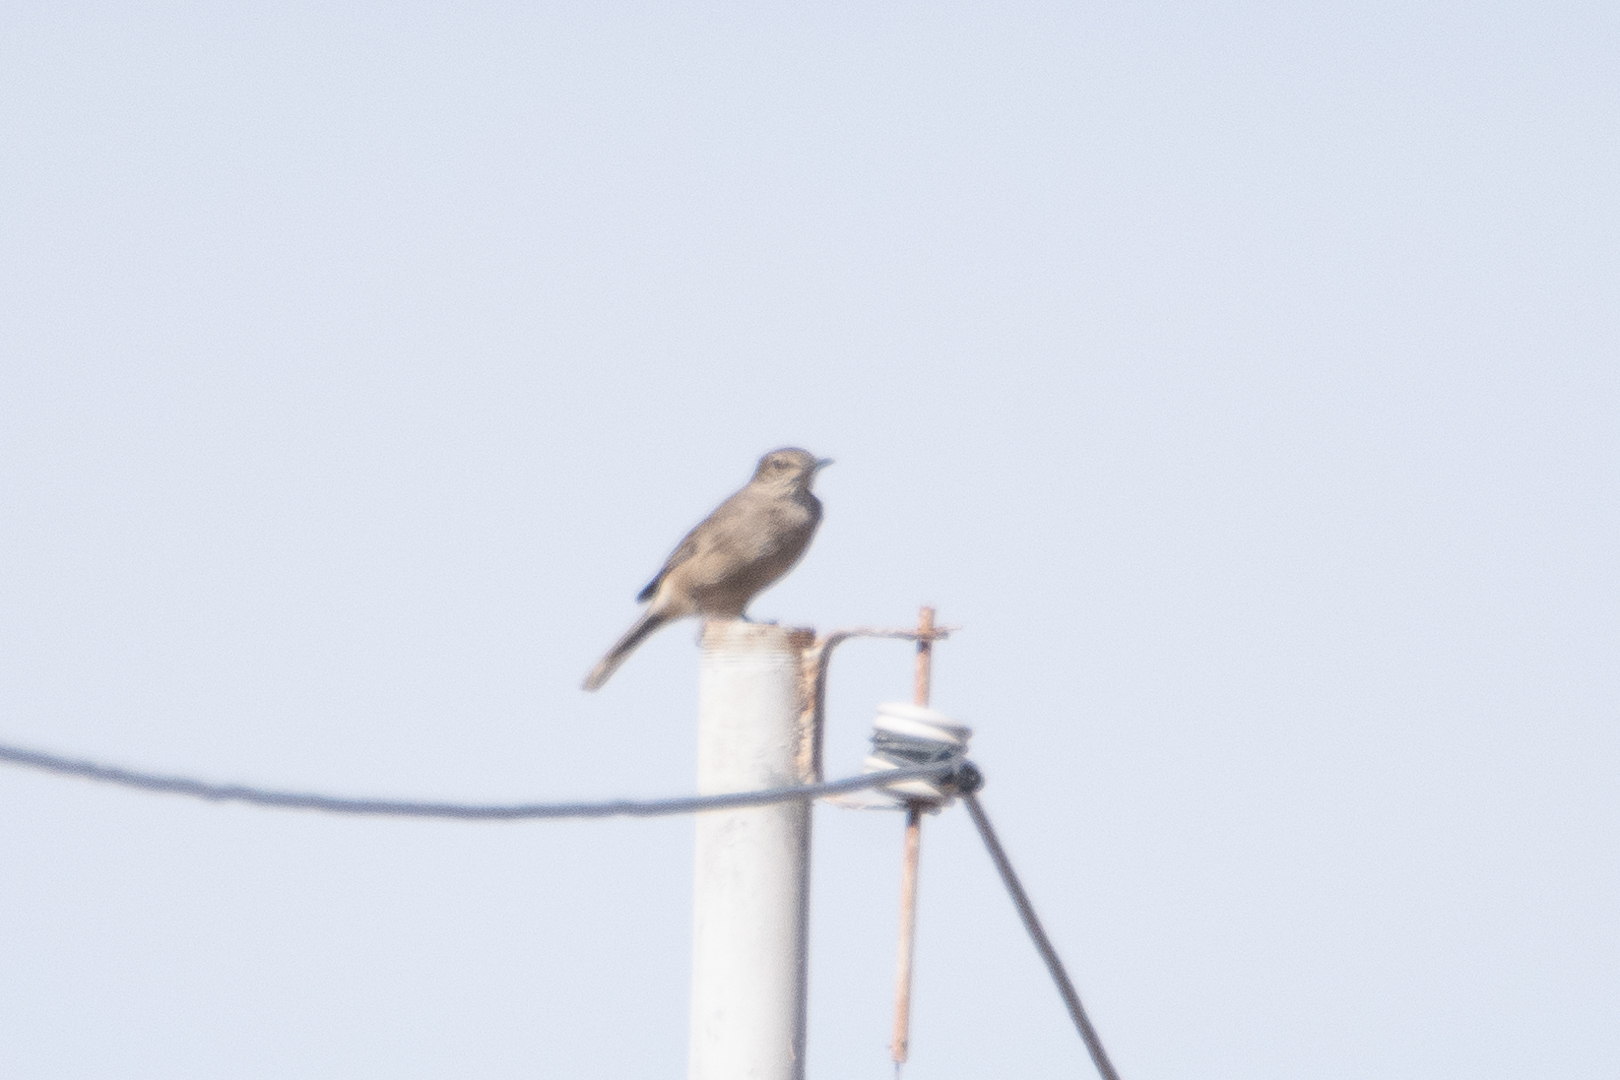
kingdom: Animalia
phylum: Chordata
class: Aves
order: Passeriformes
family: Tyrannidae
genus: Agriornis
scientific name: Agriornis montanus
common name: Black-billed shrike-tyrant
